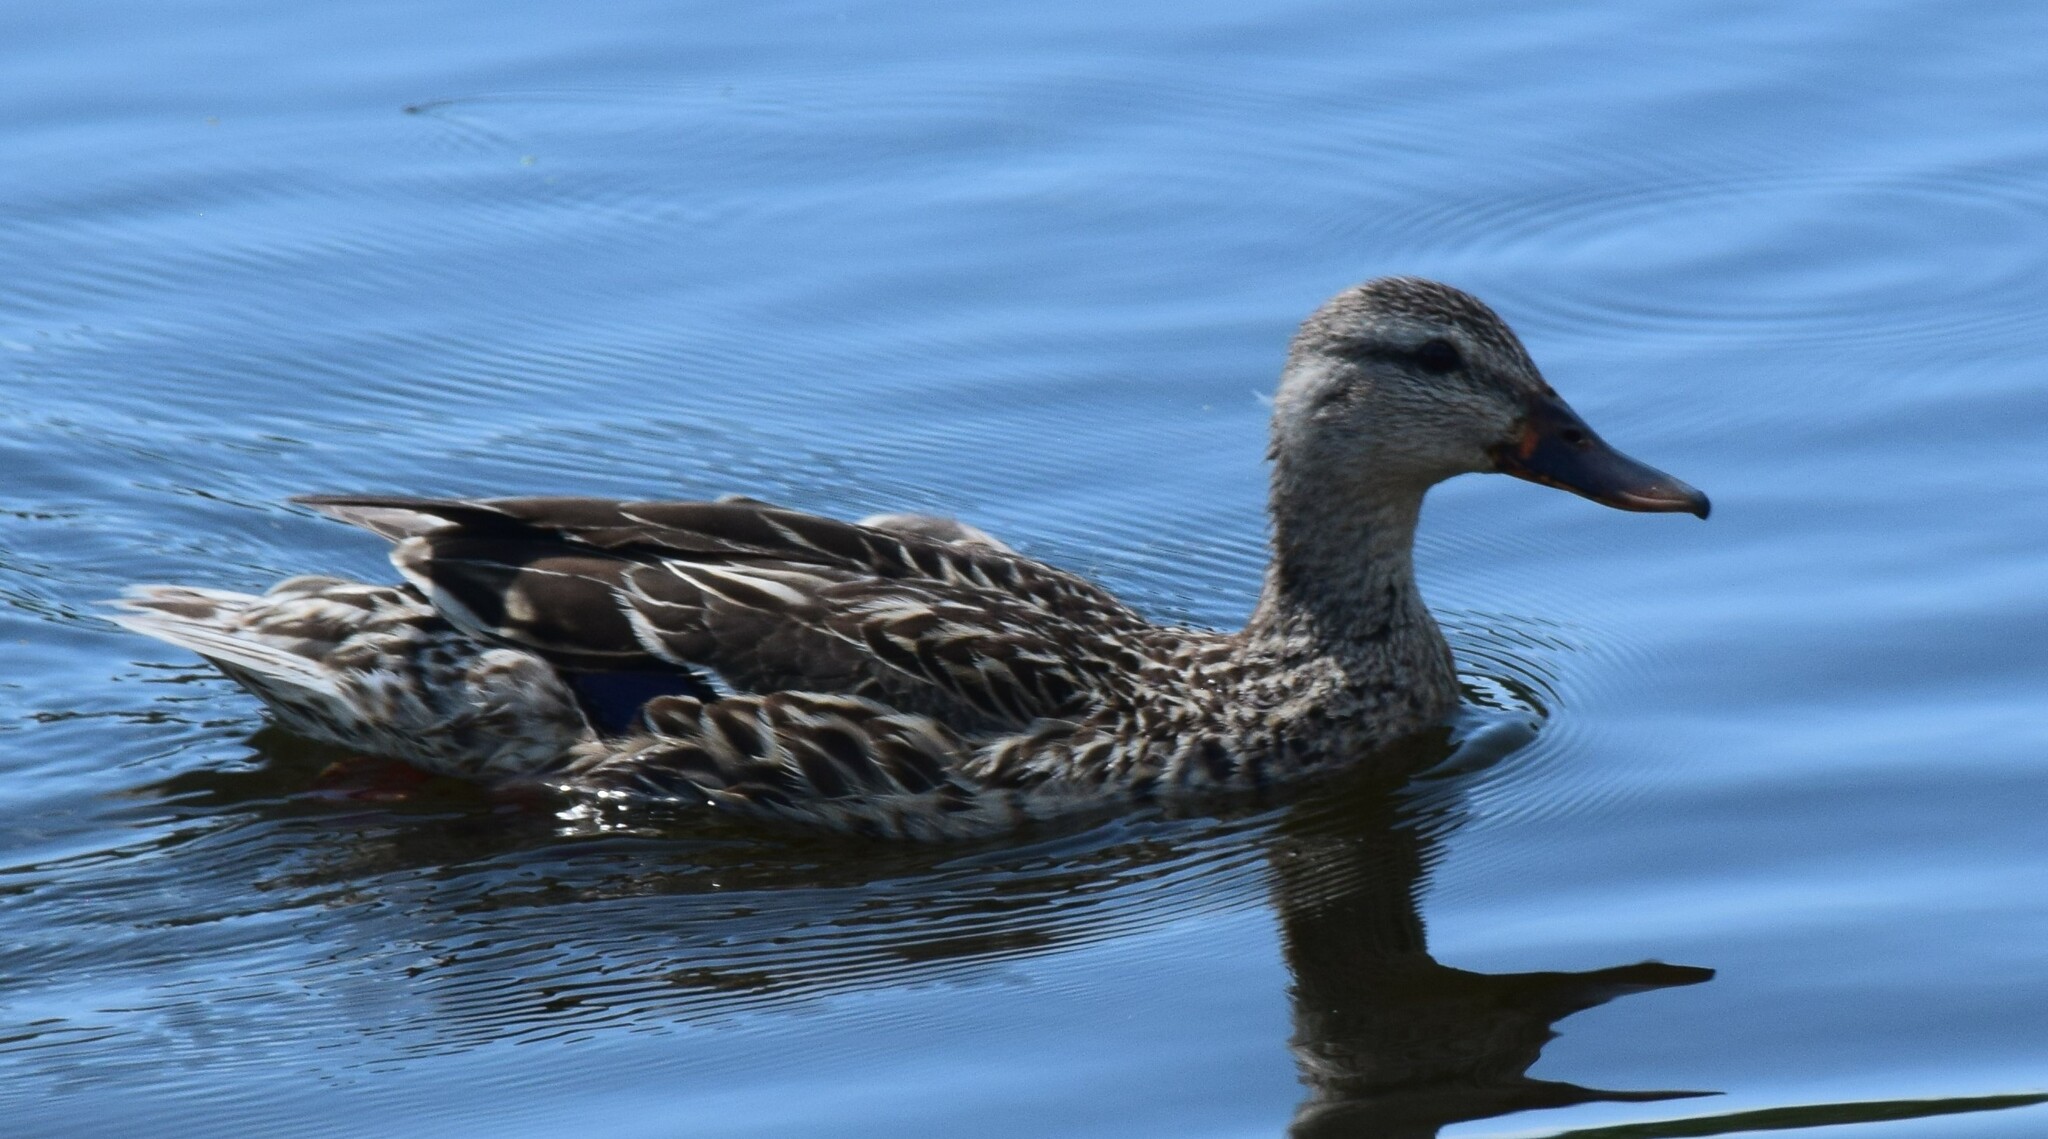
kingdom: Animalia
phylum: Chordata
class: Aves
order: Anseriformes
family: Anatidae
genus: Anas
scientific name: Anas platyrhynchos
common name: Mallard
